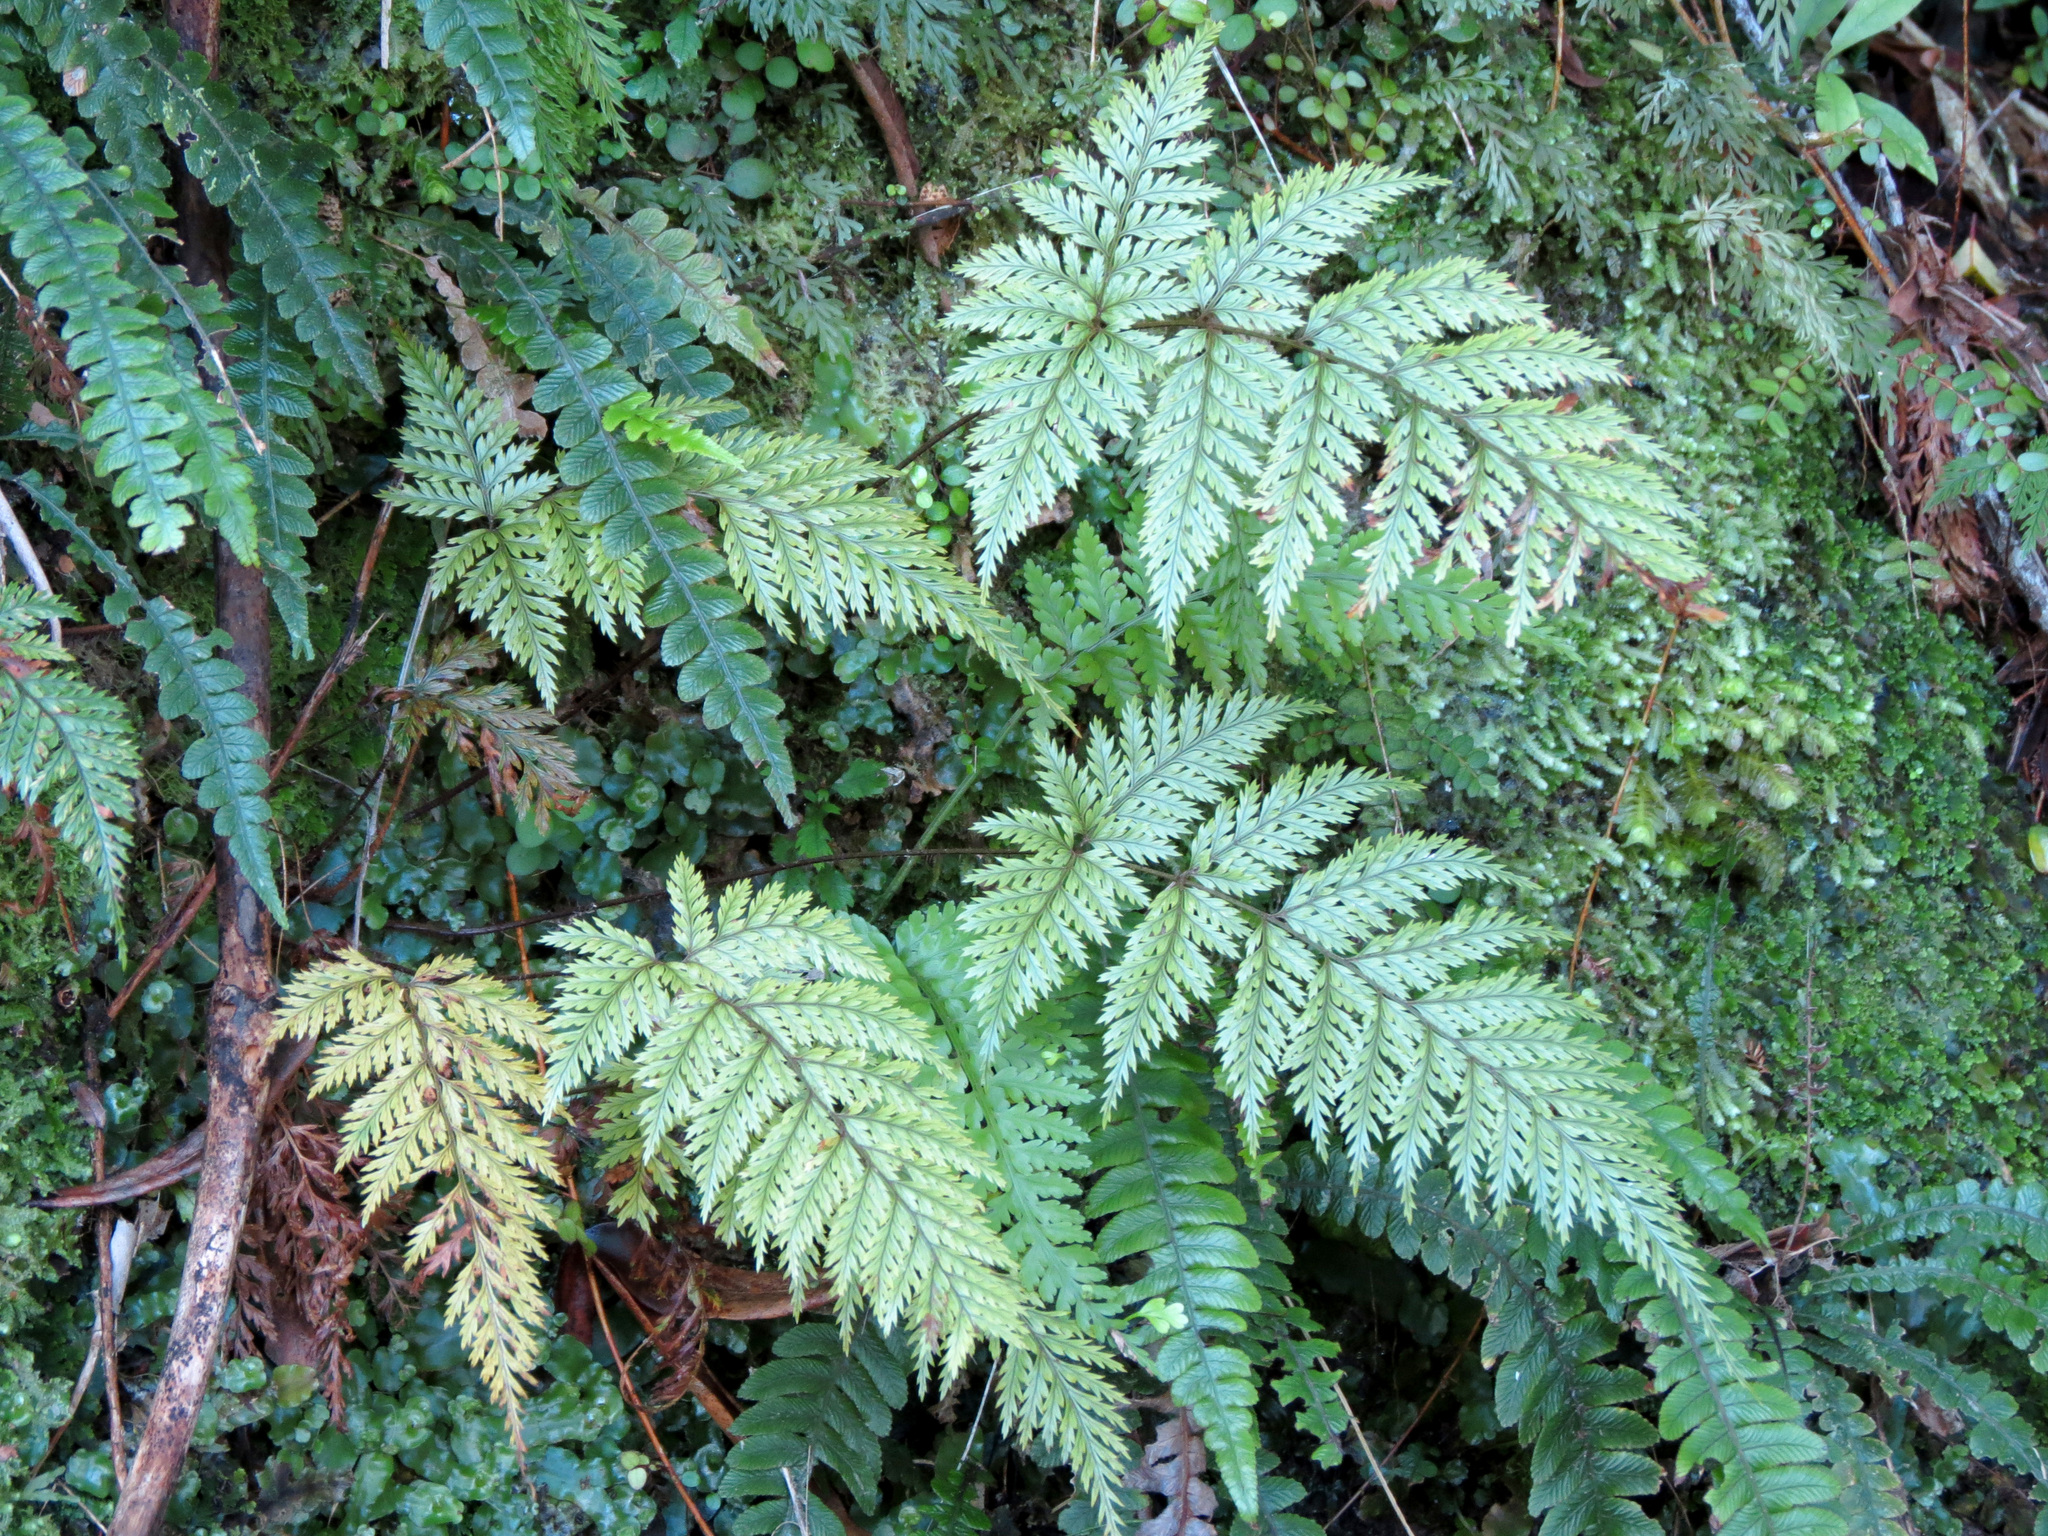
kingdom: Plantae
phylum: Tracheophyta
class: Polypodiopsida
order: Polypodiales
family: Dryopteridaceae
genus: Lastreopsis
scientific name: Lastreopsis hispida
